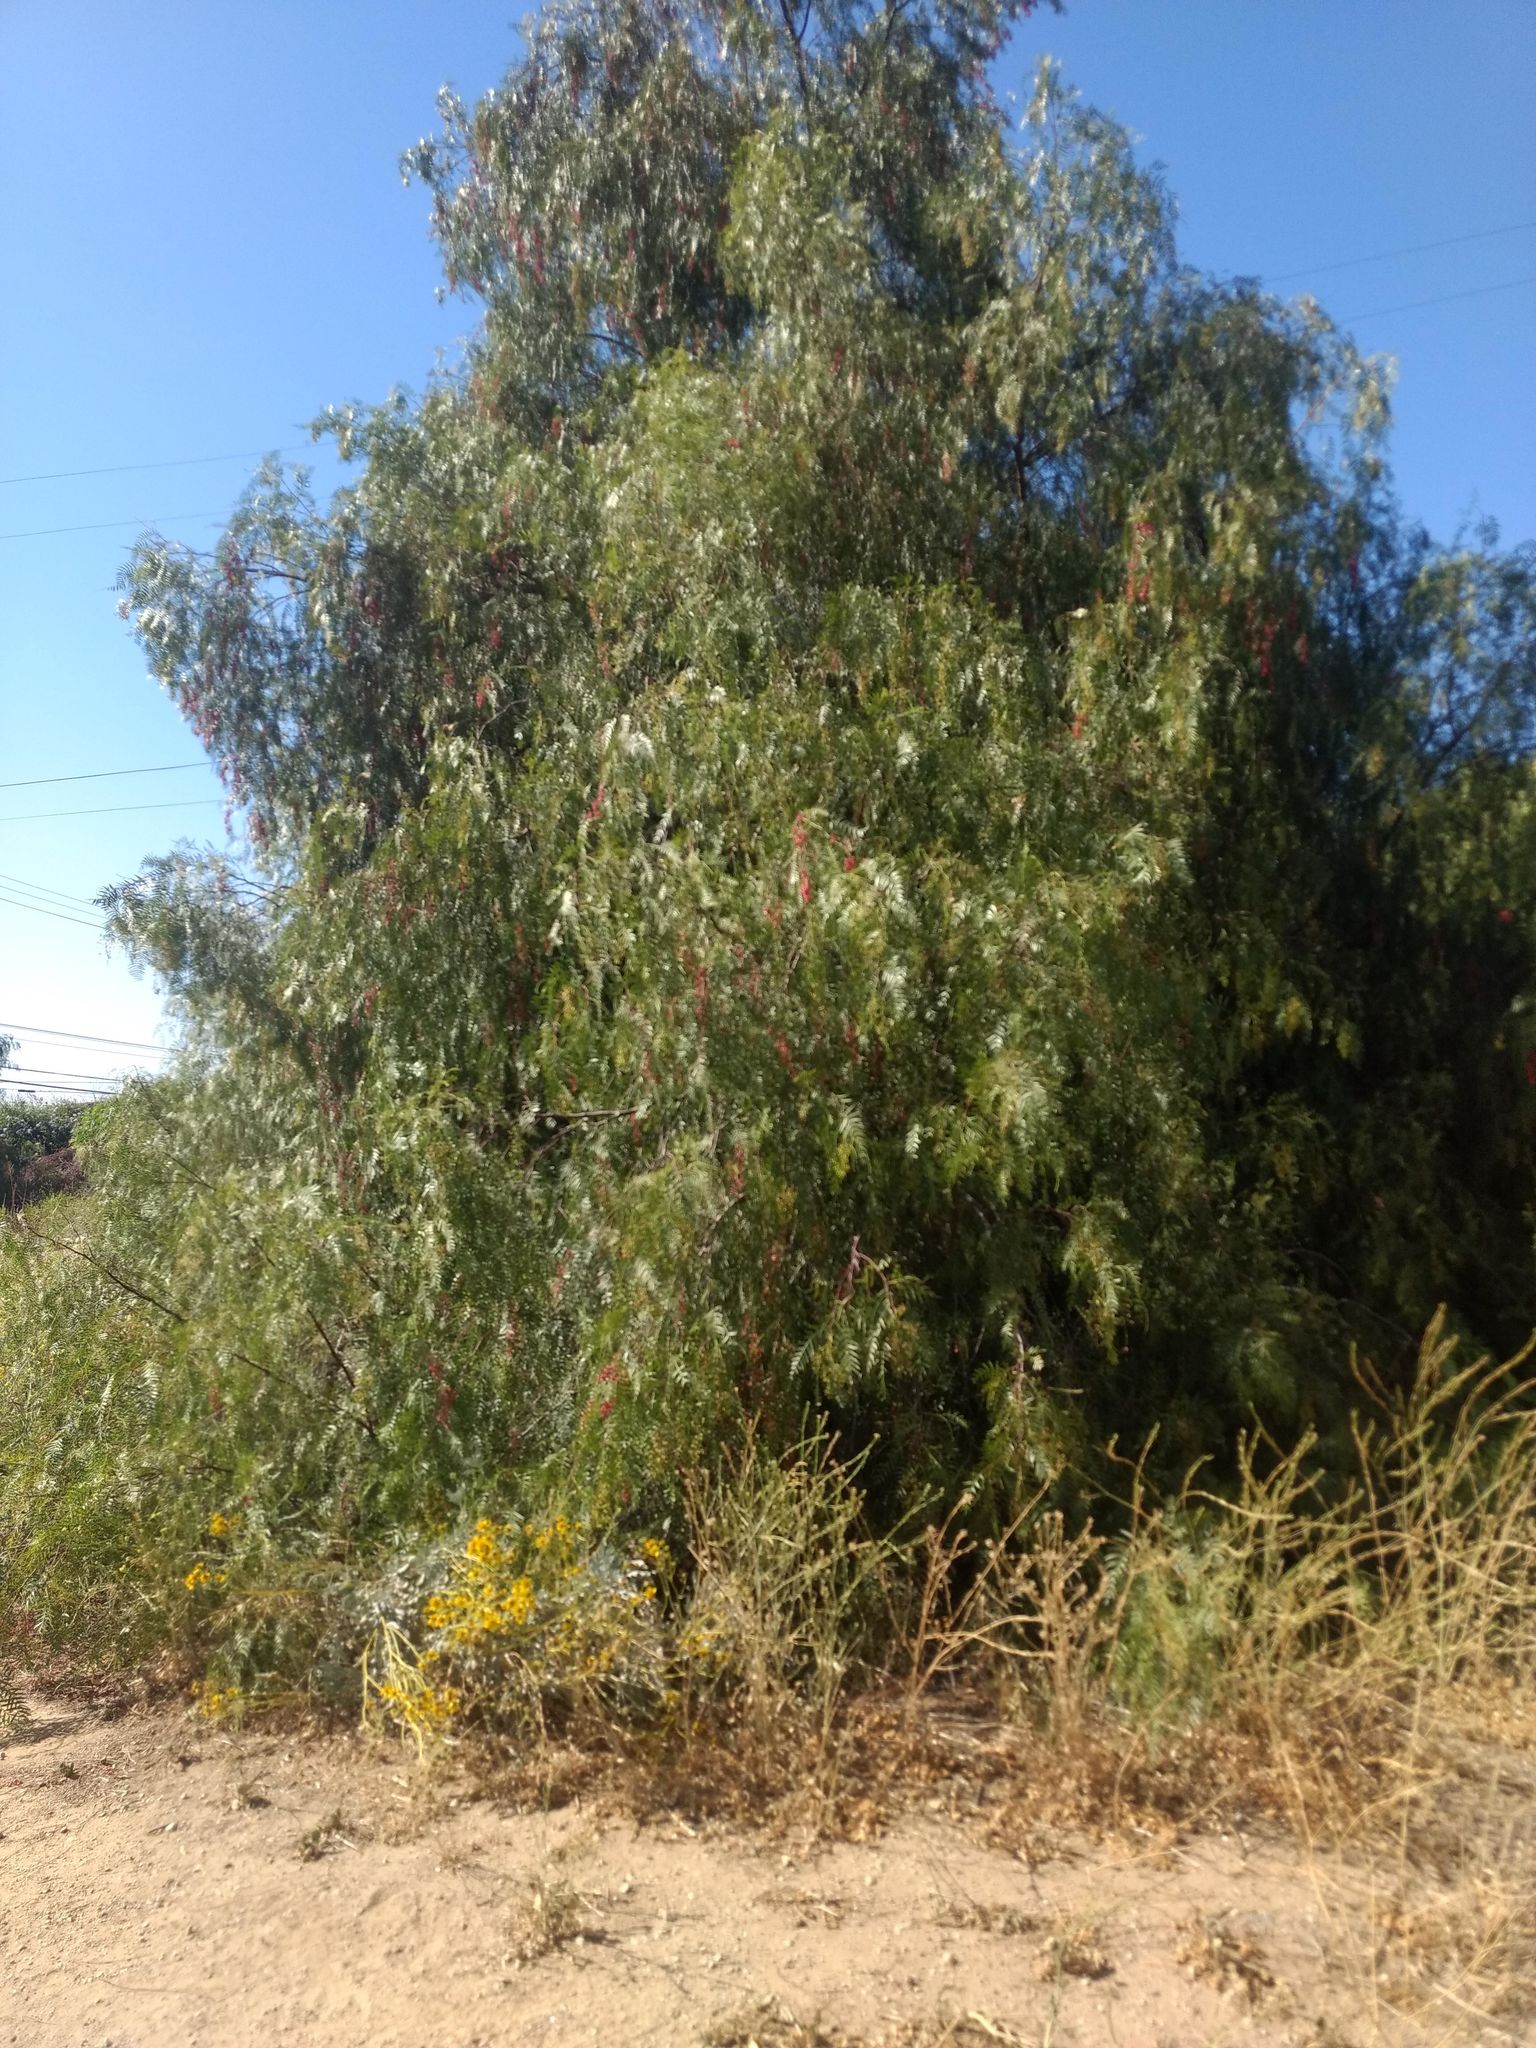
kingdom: Plantae
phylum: Tracheophyta
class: Magnoliopsida
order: Sapindales
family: Anacardiaceae
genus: Schinus
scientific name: Schinus molle
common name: Peruvian peppertree
